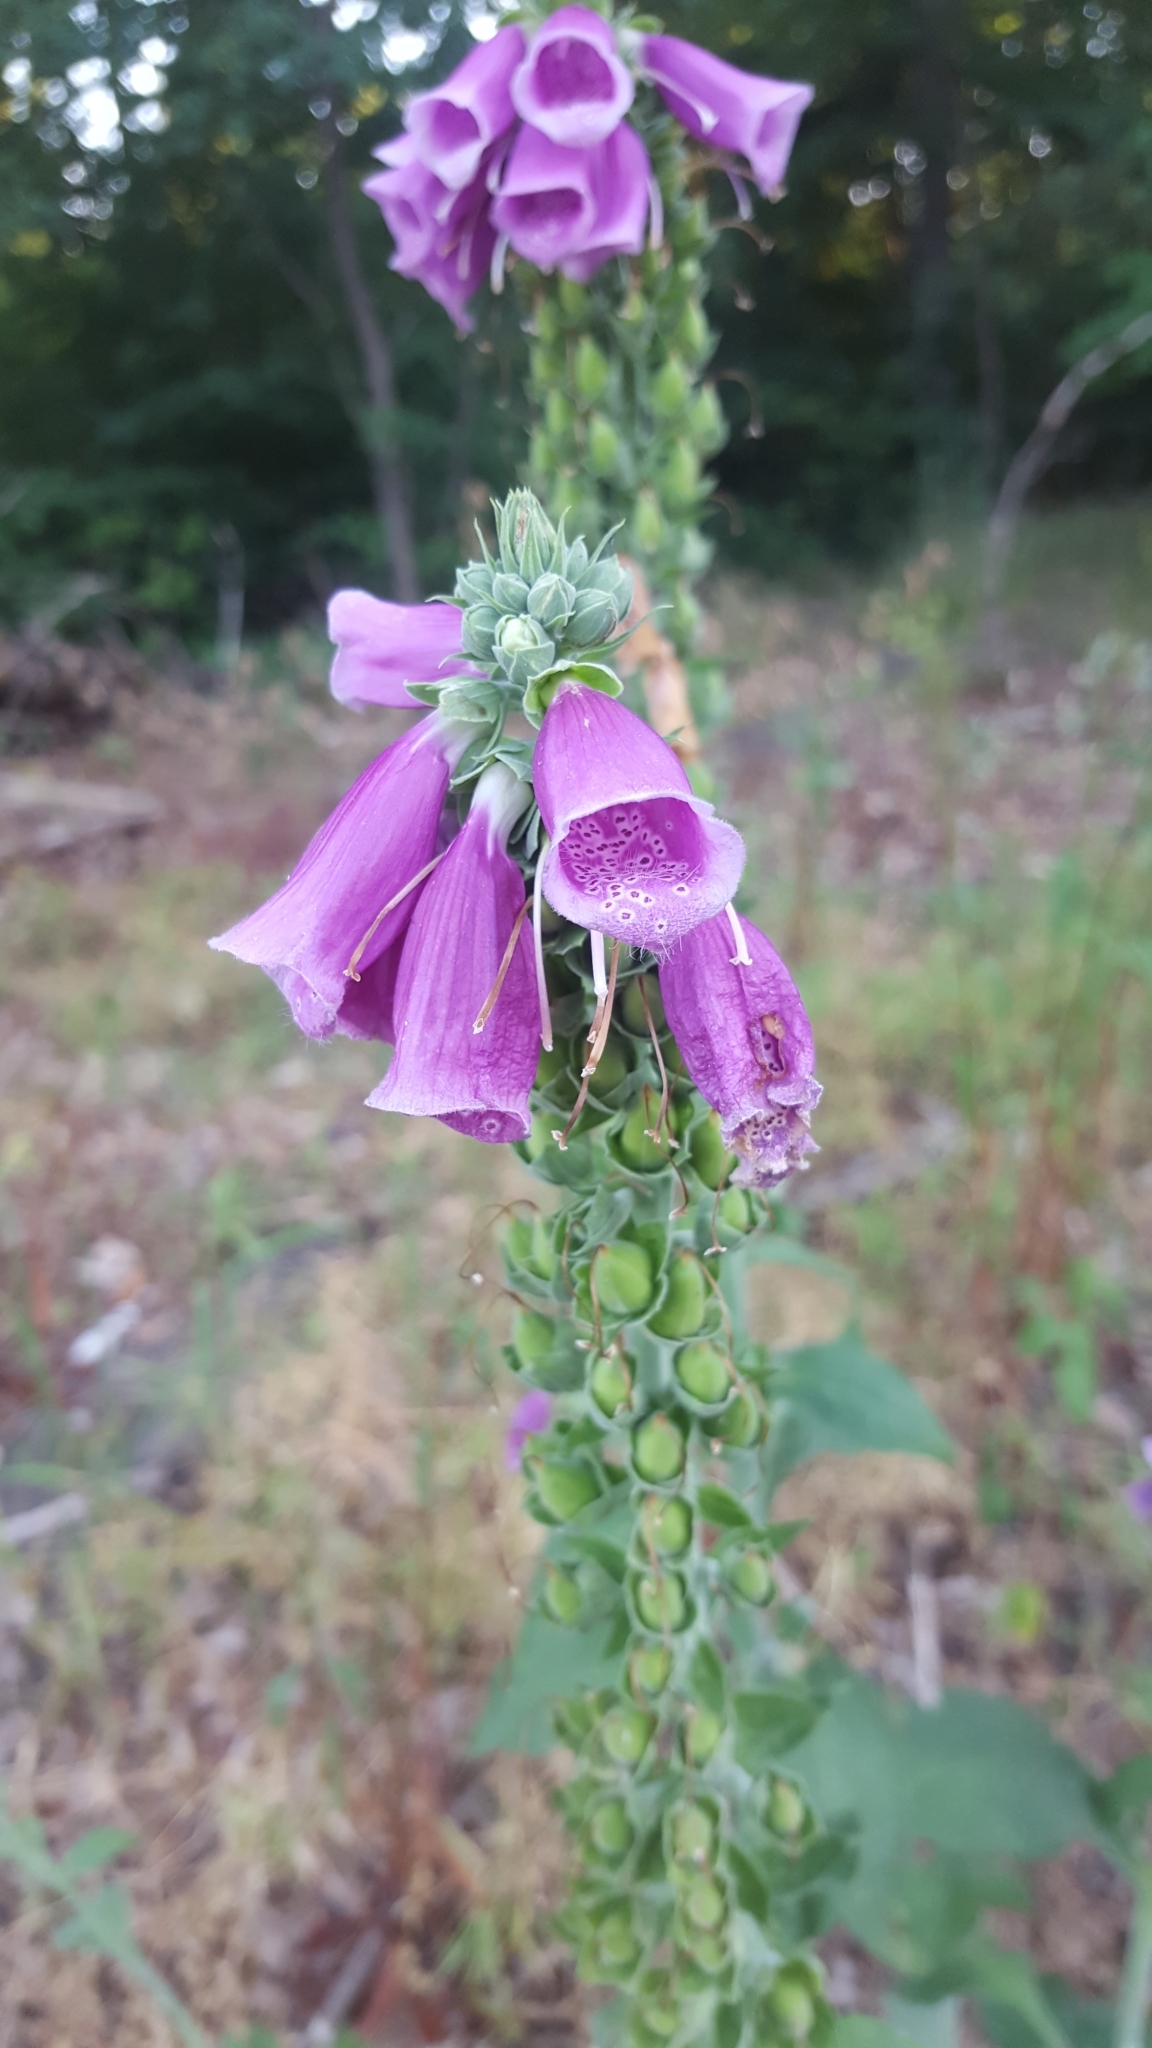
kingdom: Plantae
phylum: Tracheophyta
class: Magnoliopsida
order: Lamiales
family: Plantaginaceae
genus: Digitalis
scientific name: Digitalis purpurea
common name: Foxglove
